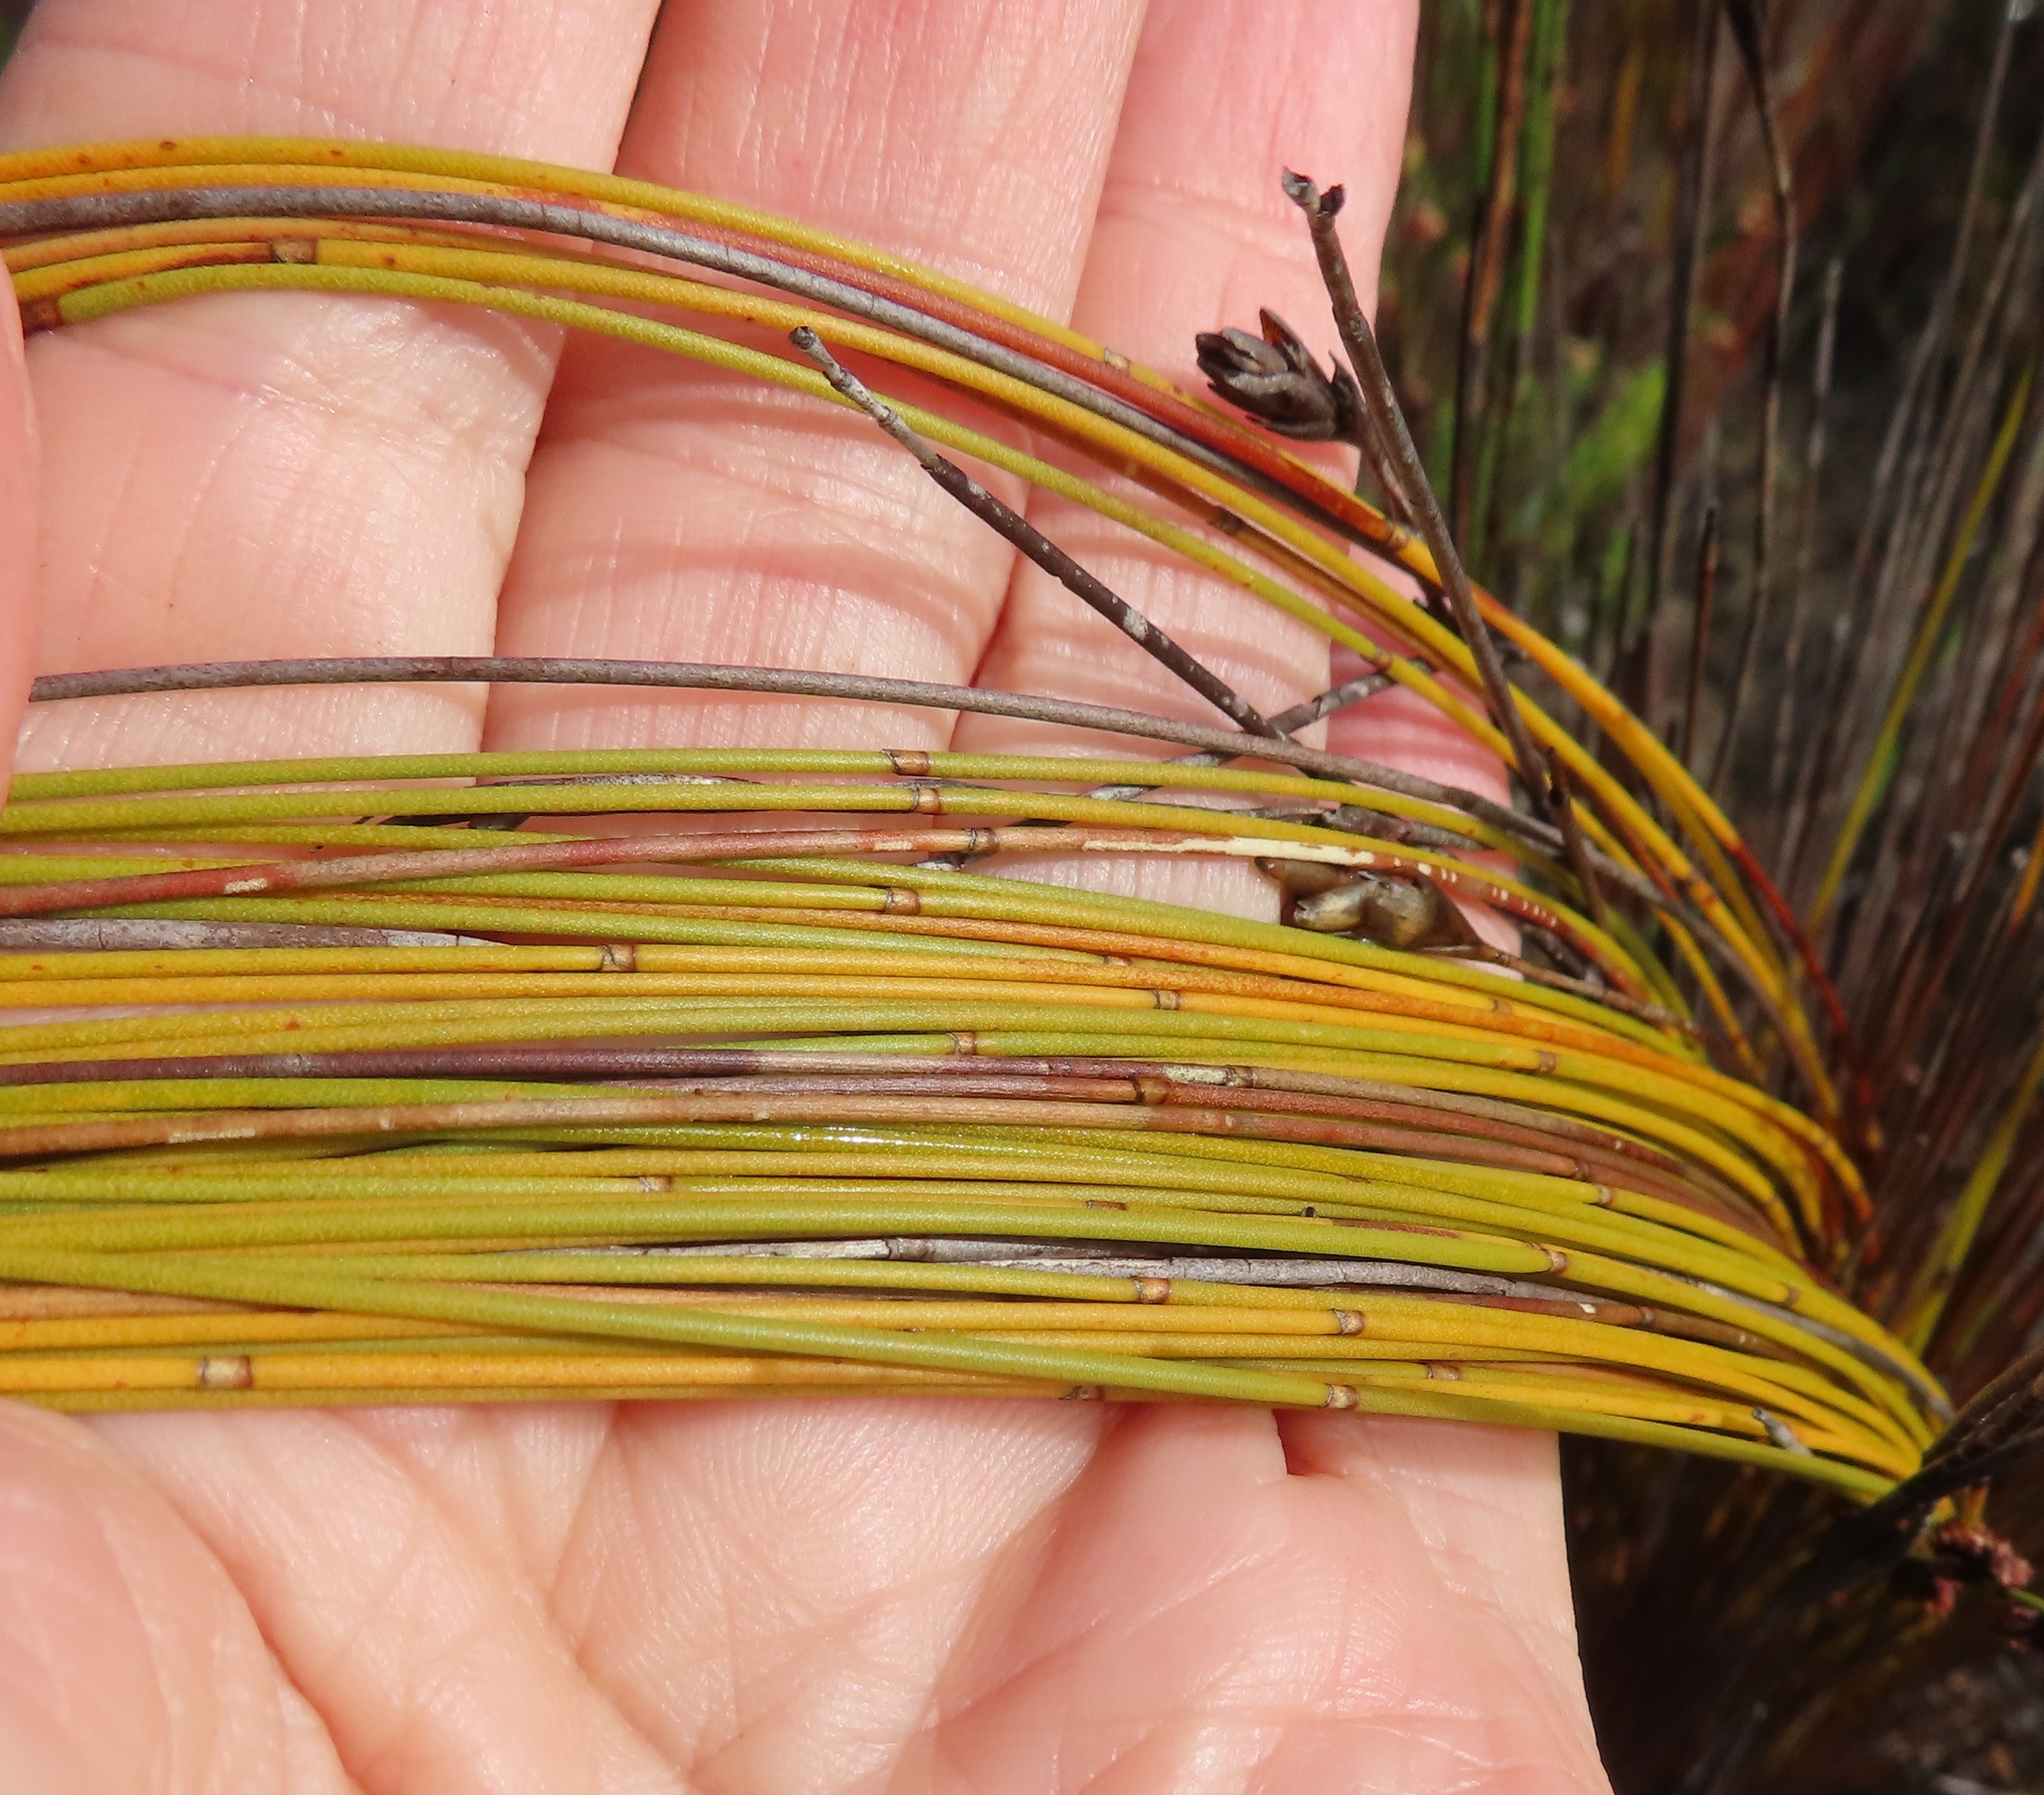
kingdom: Plantae
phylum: Tracheophyta
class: Liliopsida
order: Poales
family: Restionaceae
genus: Elegia
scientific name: Elegia filacea
